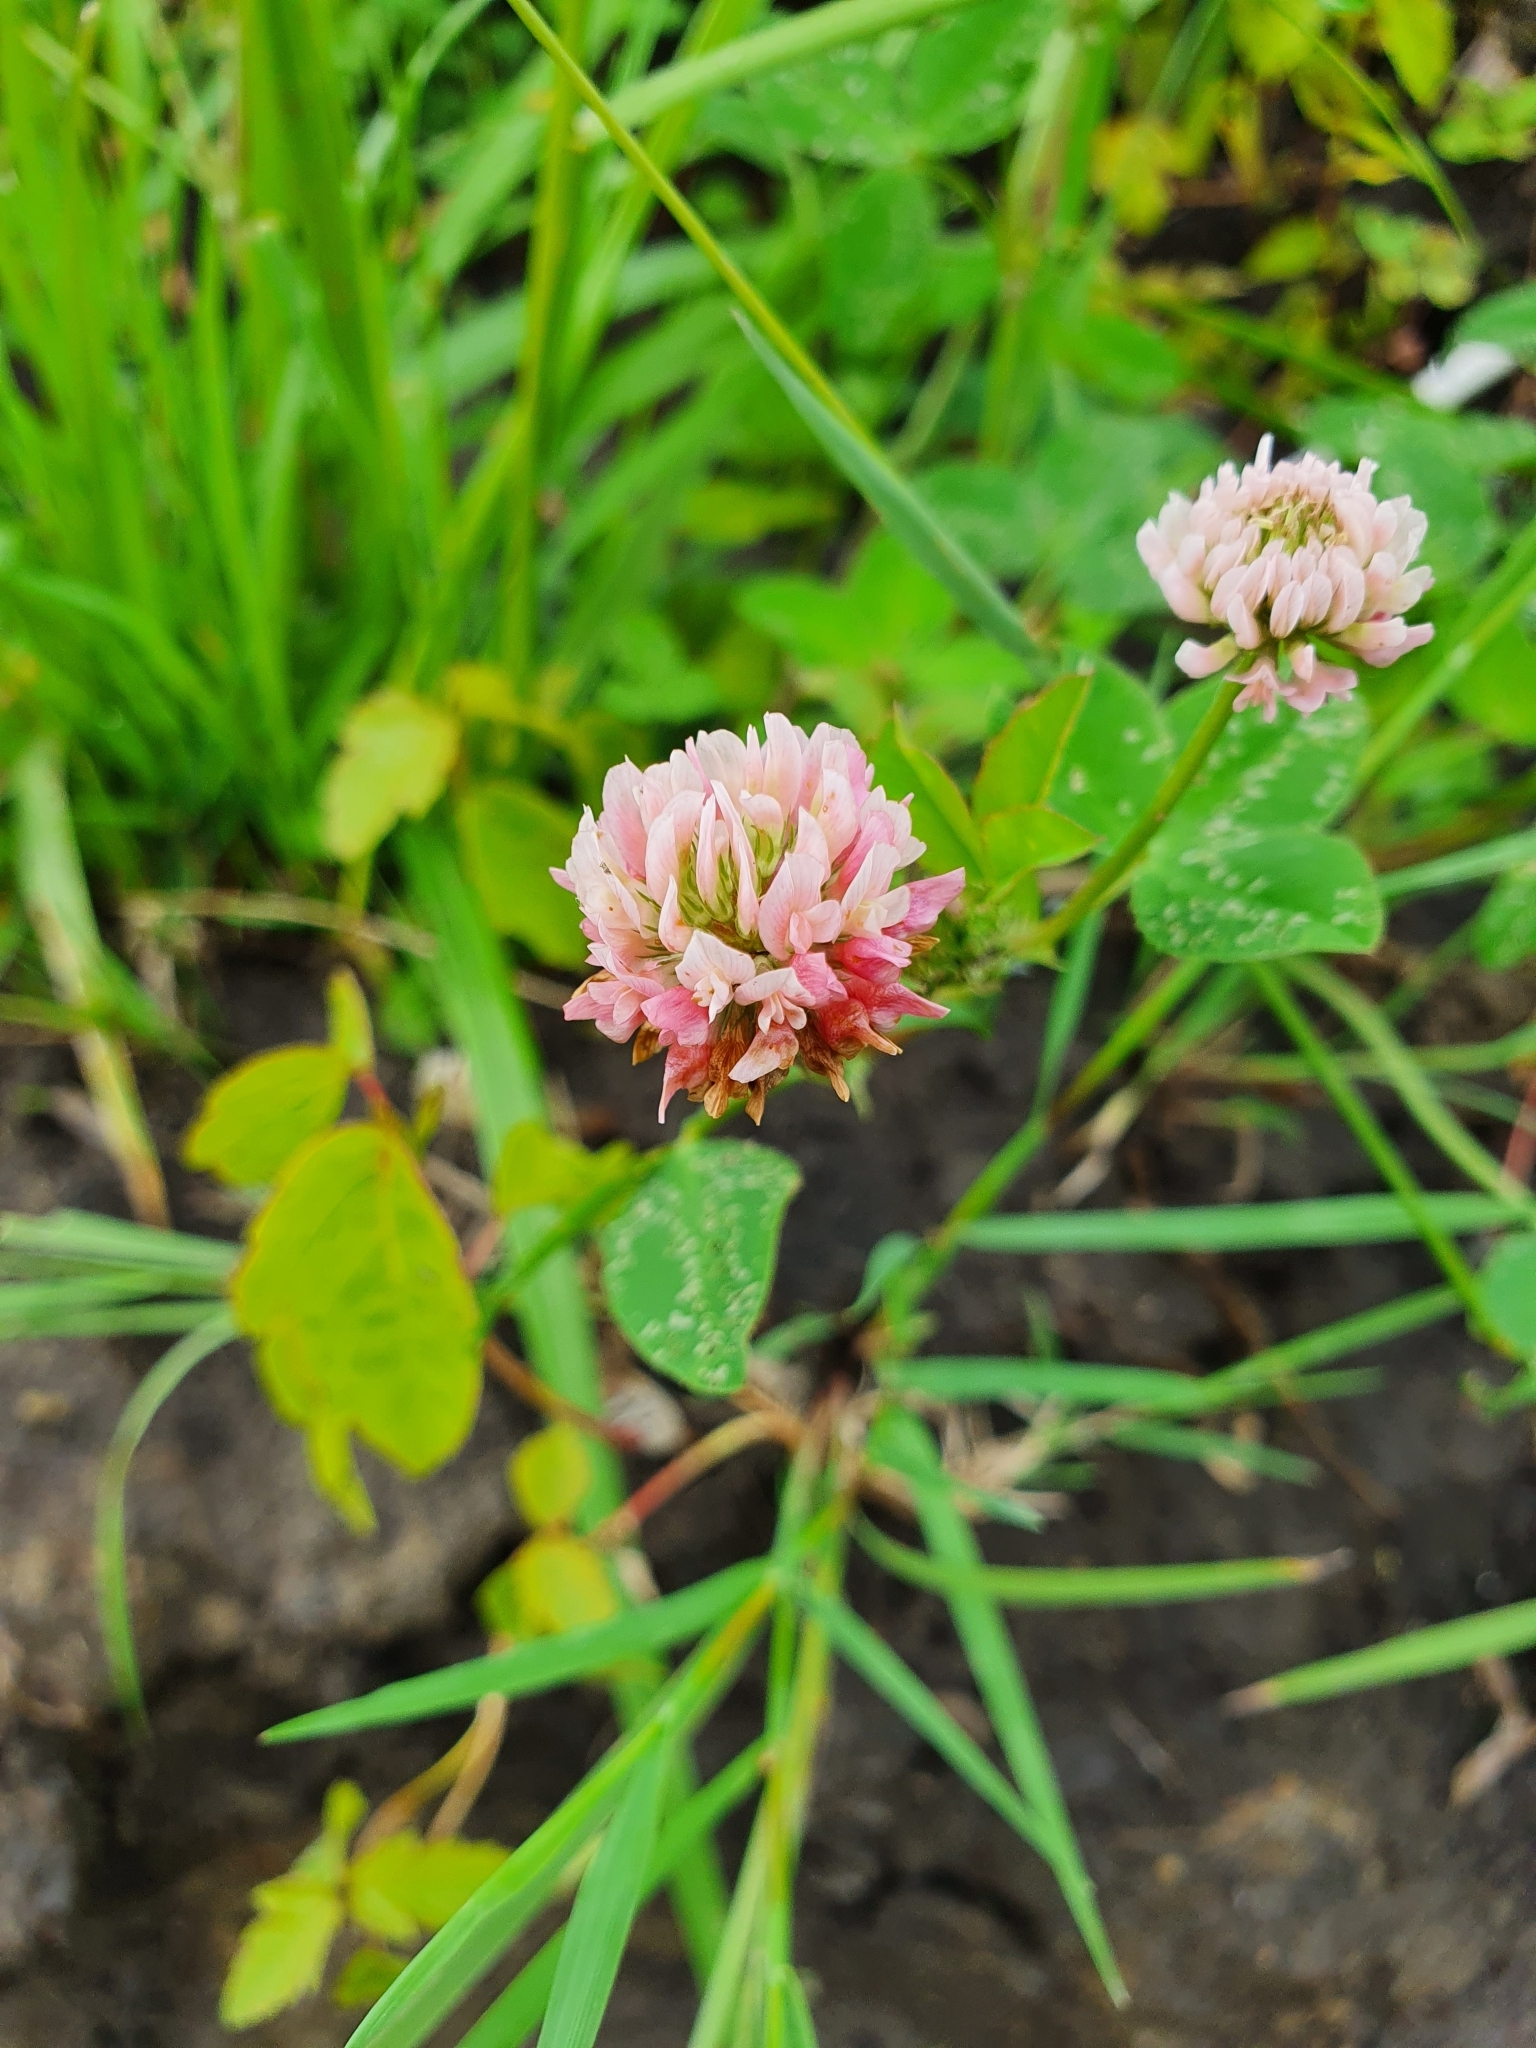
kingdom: Plantae
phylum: Tracheophyta
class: Magnoliopsida
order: Fabales
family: Fabaceae
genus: Trifolium
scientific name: Trifolium hybridum
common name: Alsike clover
